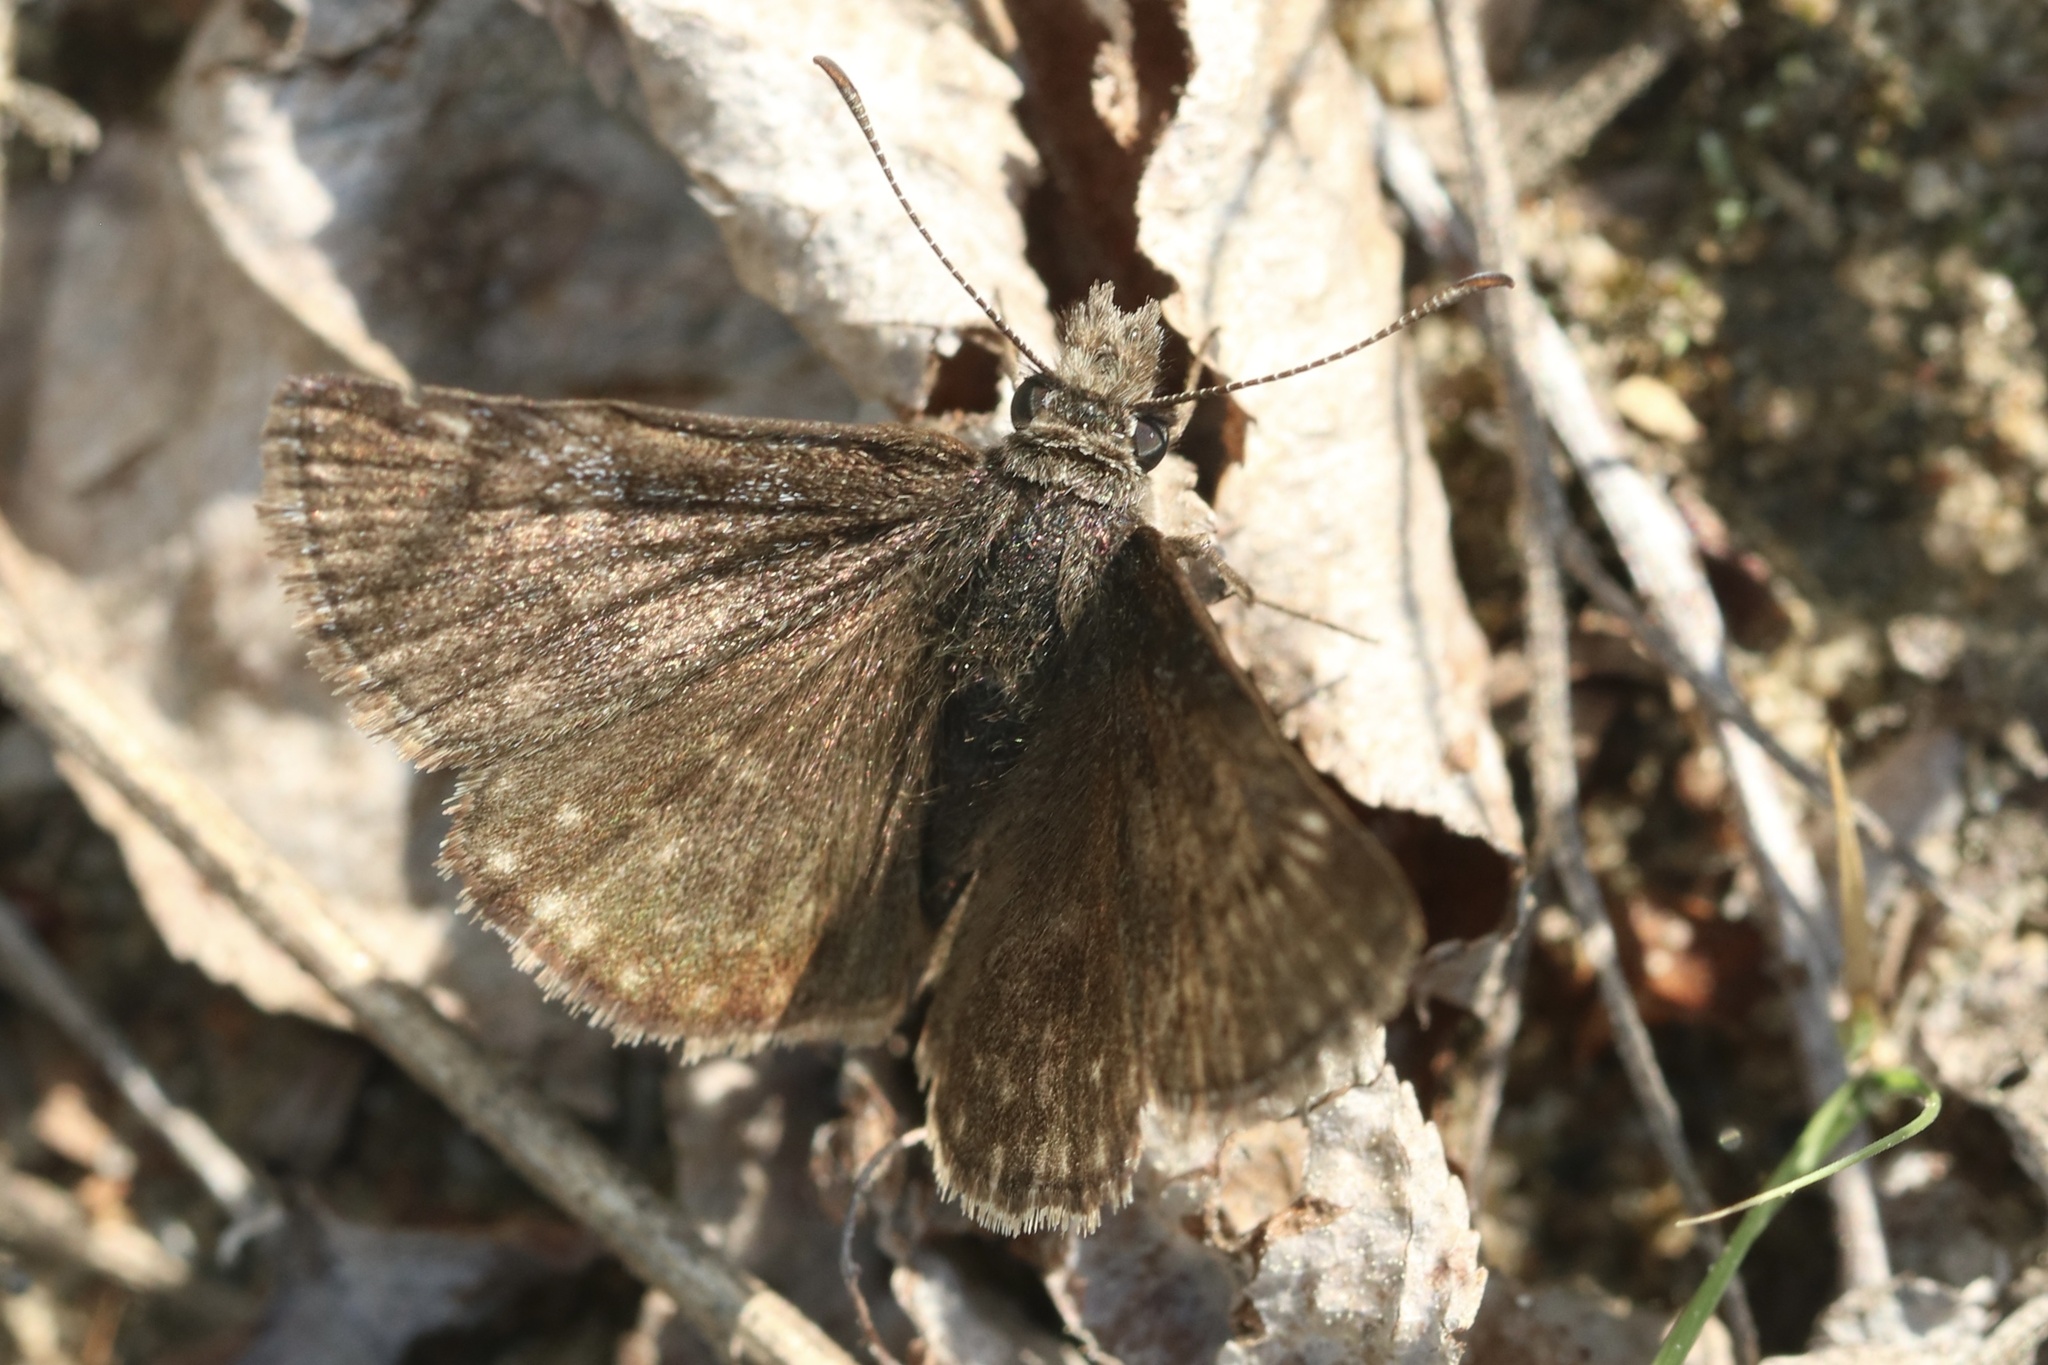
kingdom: Animalia
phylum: Arthropoda
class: Insecta
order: Lepidoptera
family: Hesperiidae
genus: Erynnis
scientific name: Erynnis icelus
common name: Dreamy duskywing
